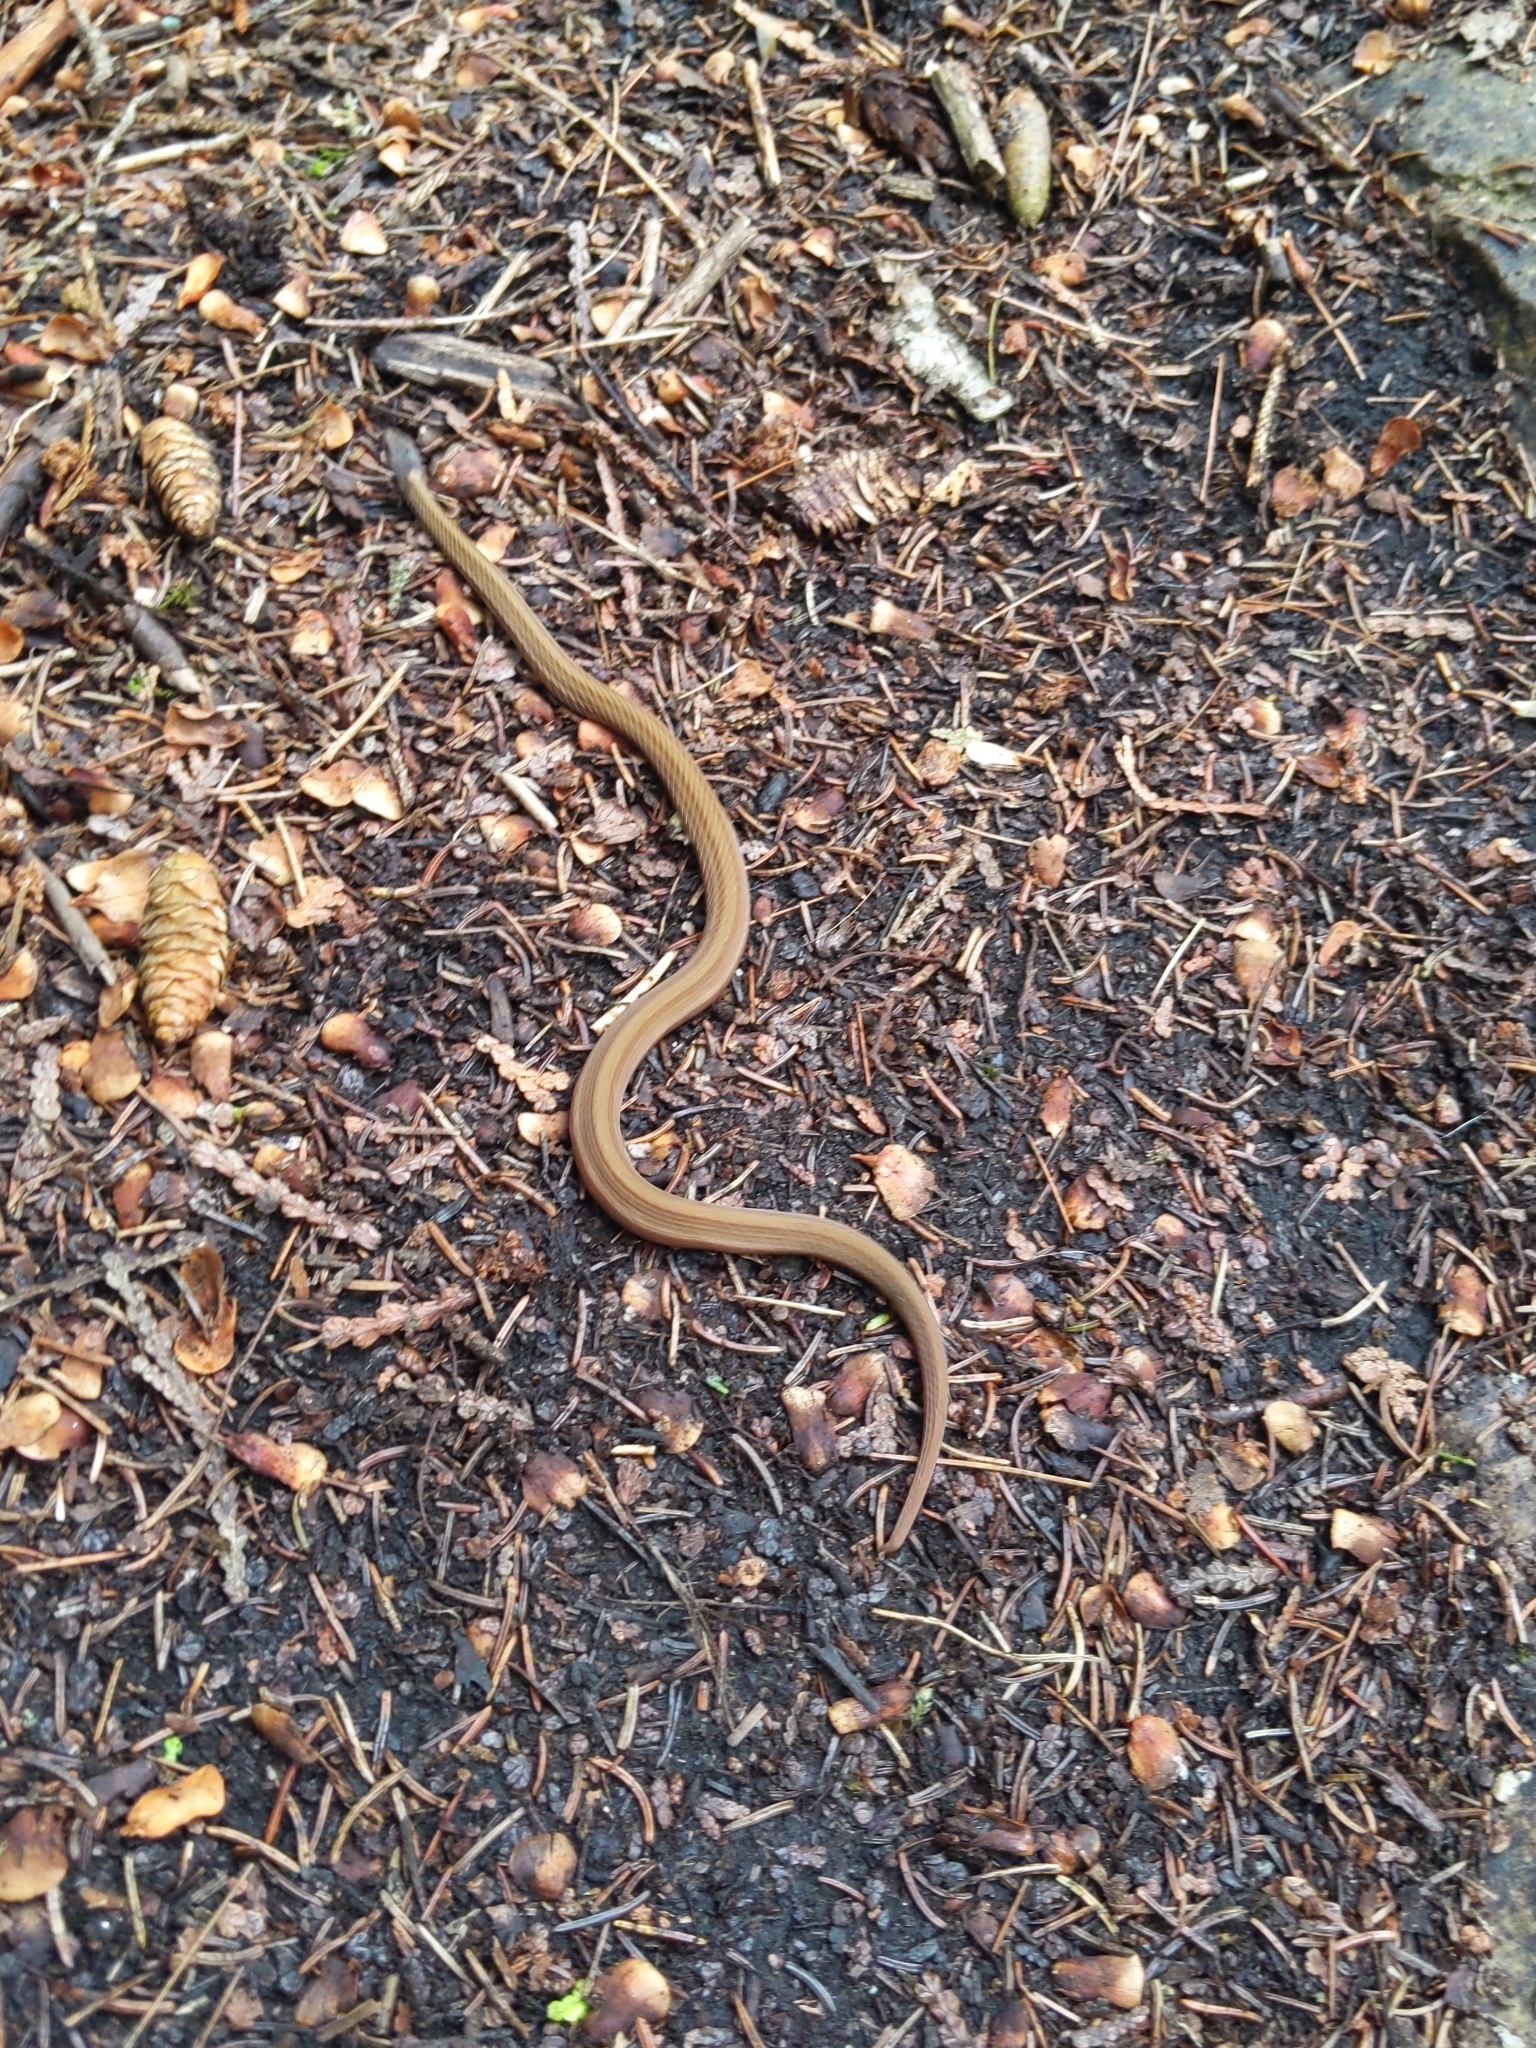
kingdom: Animalia
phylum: Chordata
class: Squamata
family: Colubridae
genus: Storeria
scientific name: Storeria occipitomaculata
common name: Redbelly snake
